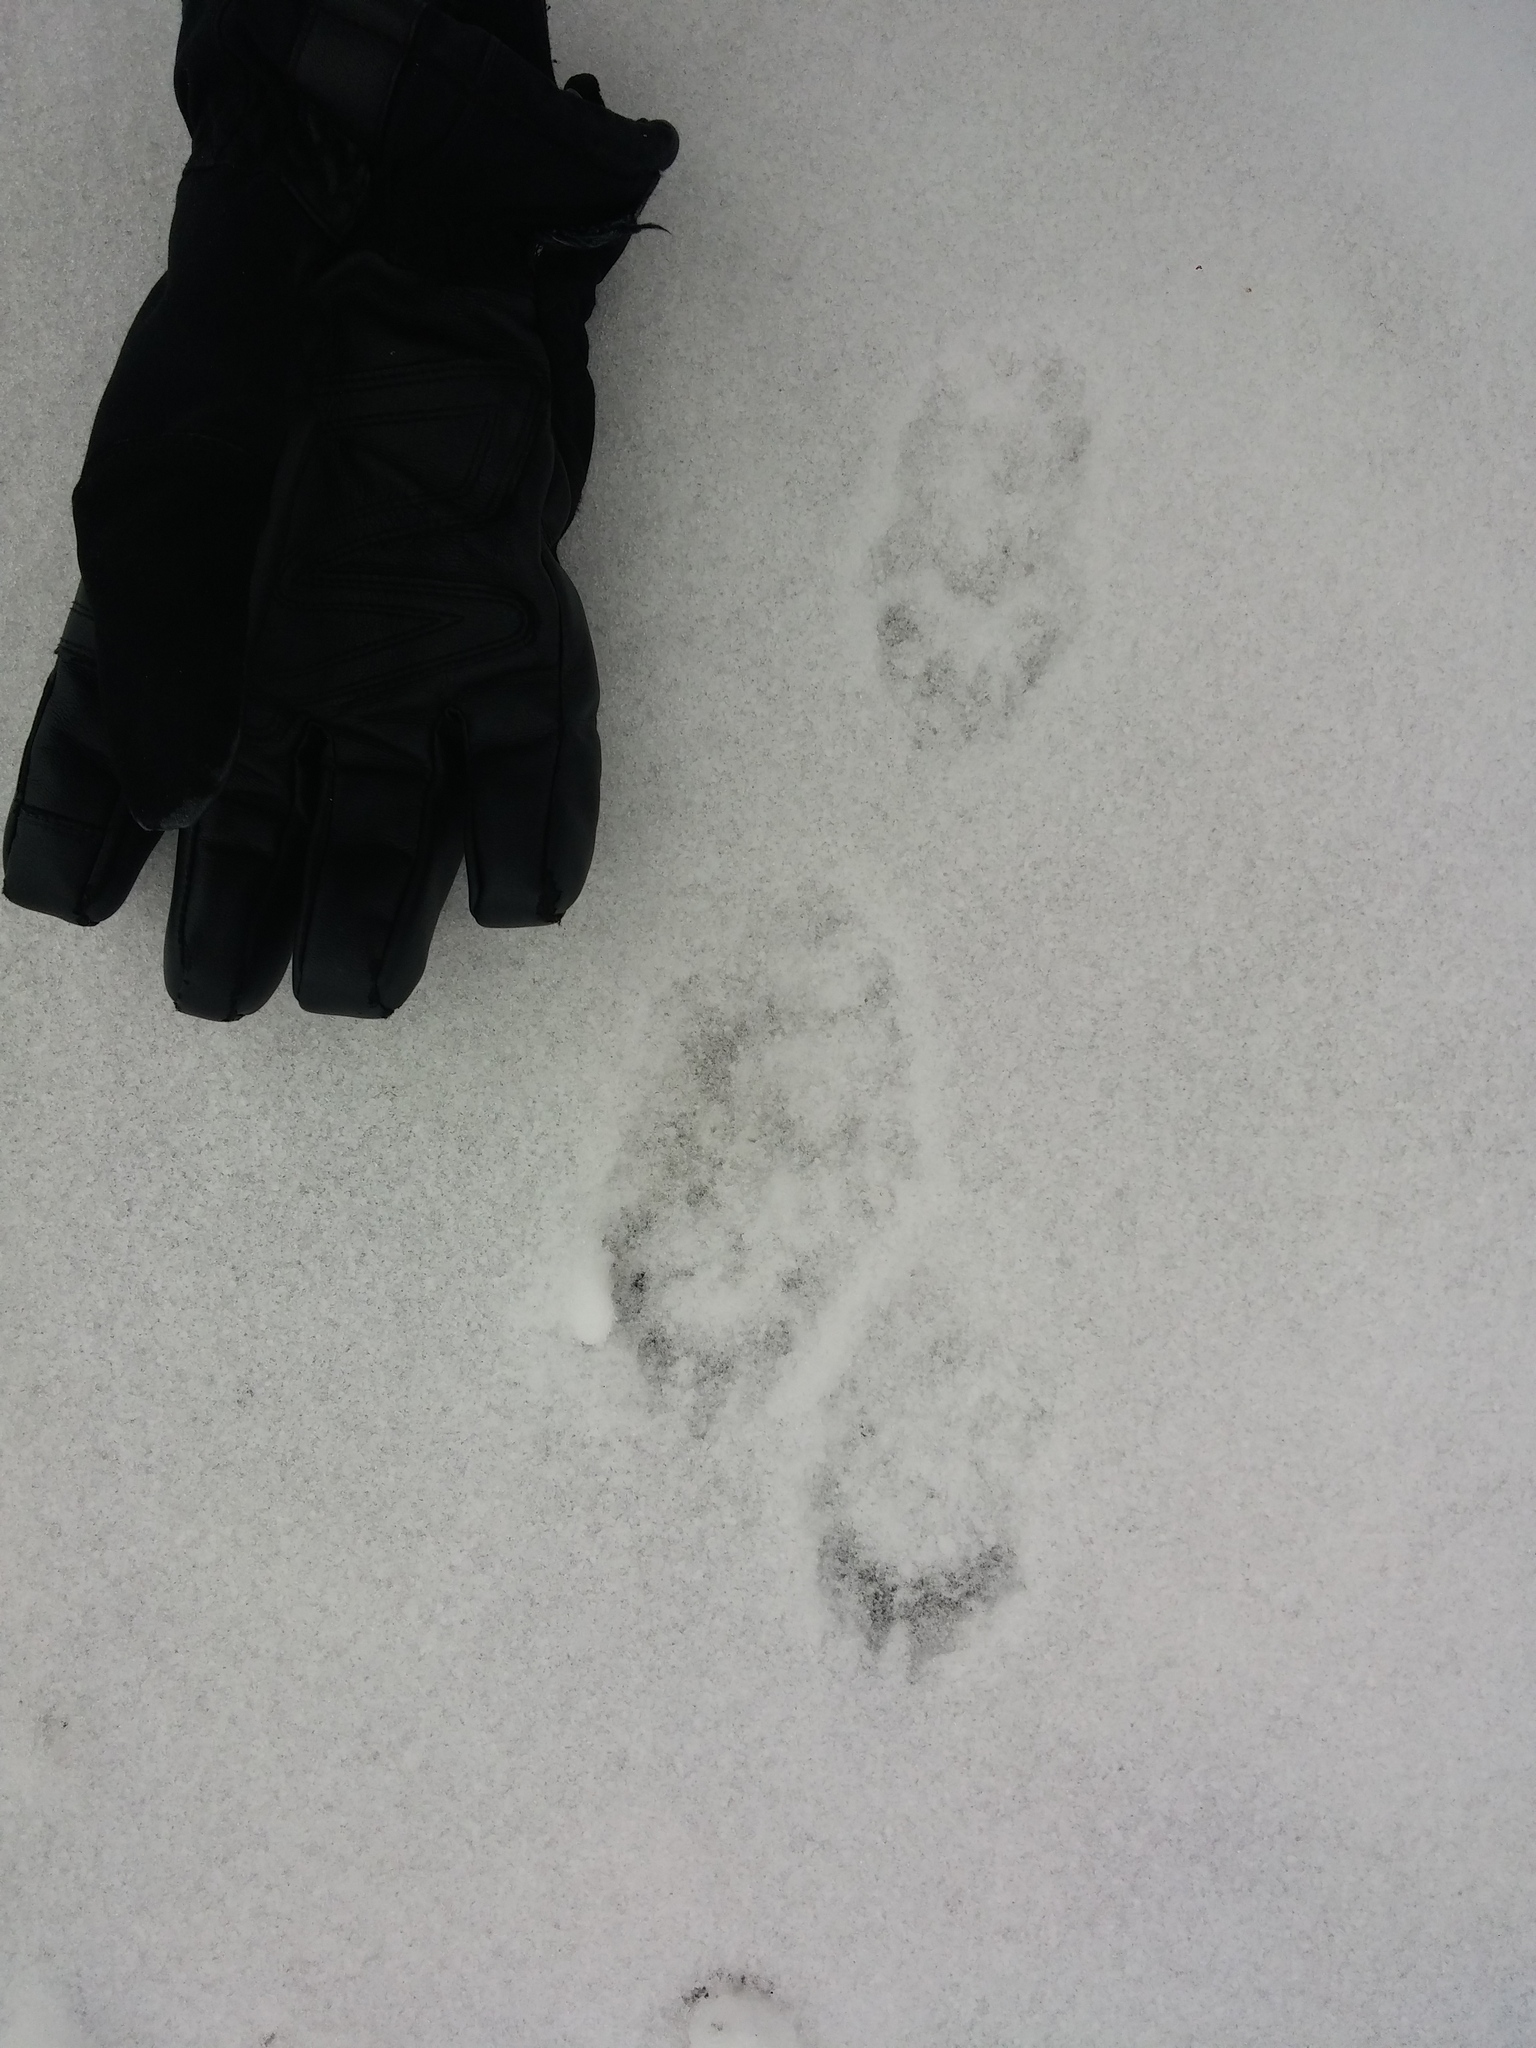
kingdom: Animalia
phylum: Chordata
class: Mammalia
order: Carnivora
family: Mustelidae
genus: Pekania
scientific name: Pekania pennanti
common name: Fisher
